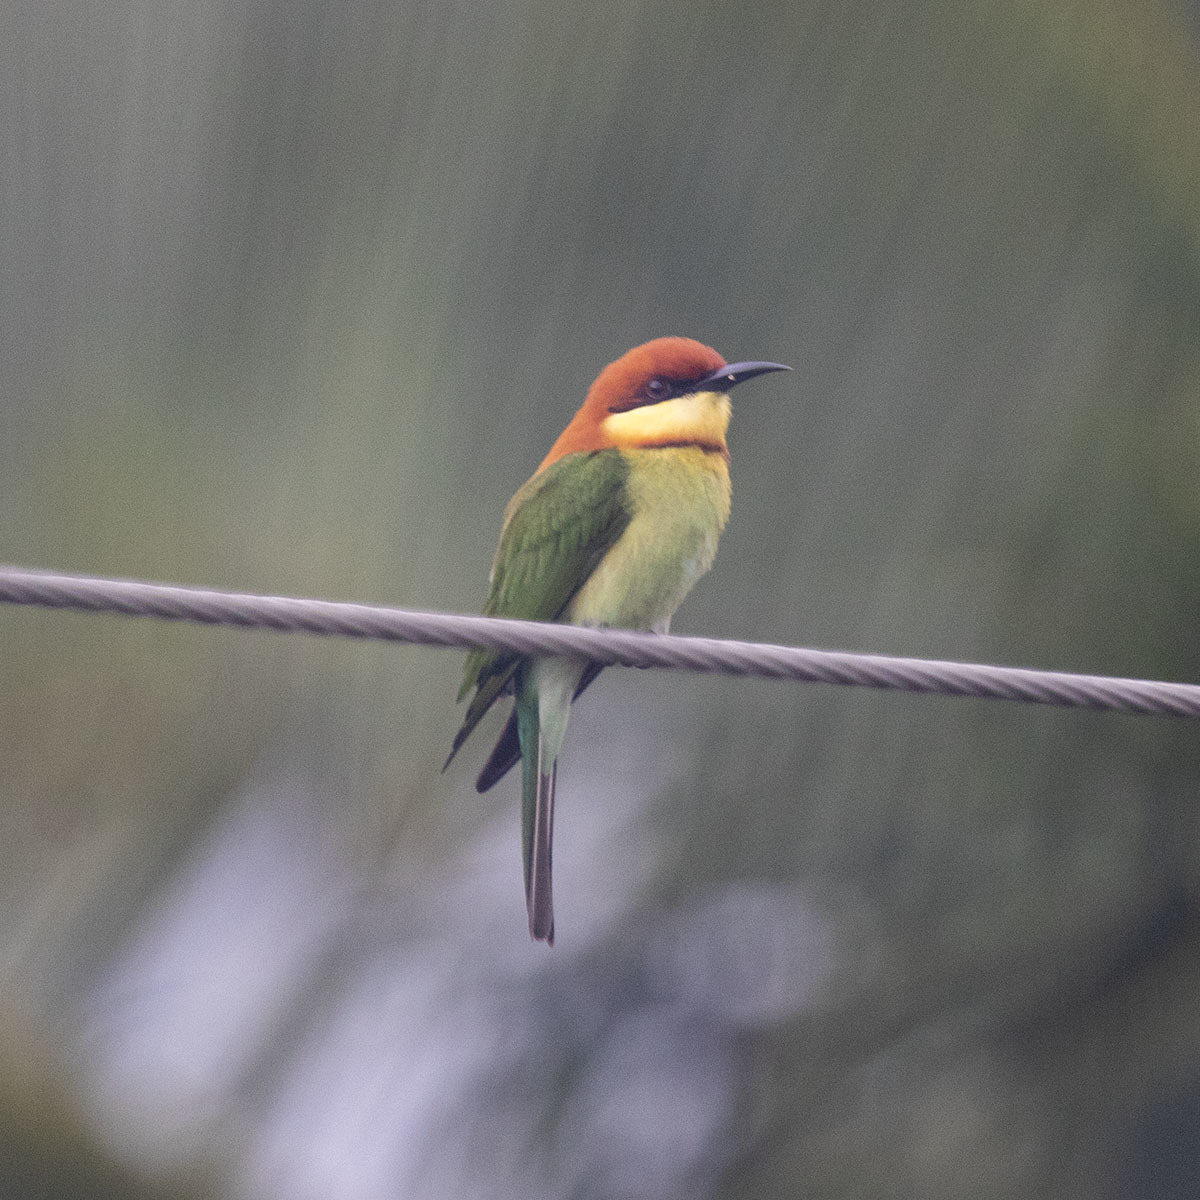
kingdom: Animalia
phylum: Chordata
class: Aves
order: Coraciiformes
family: Meropidae
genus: Merops
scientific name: Merops leschenaulti
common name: Chestnut-headed bee-eater
